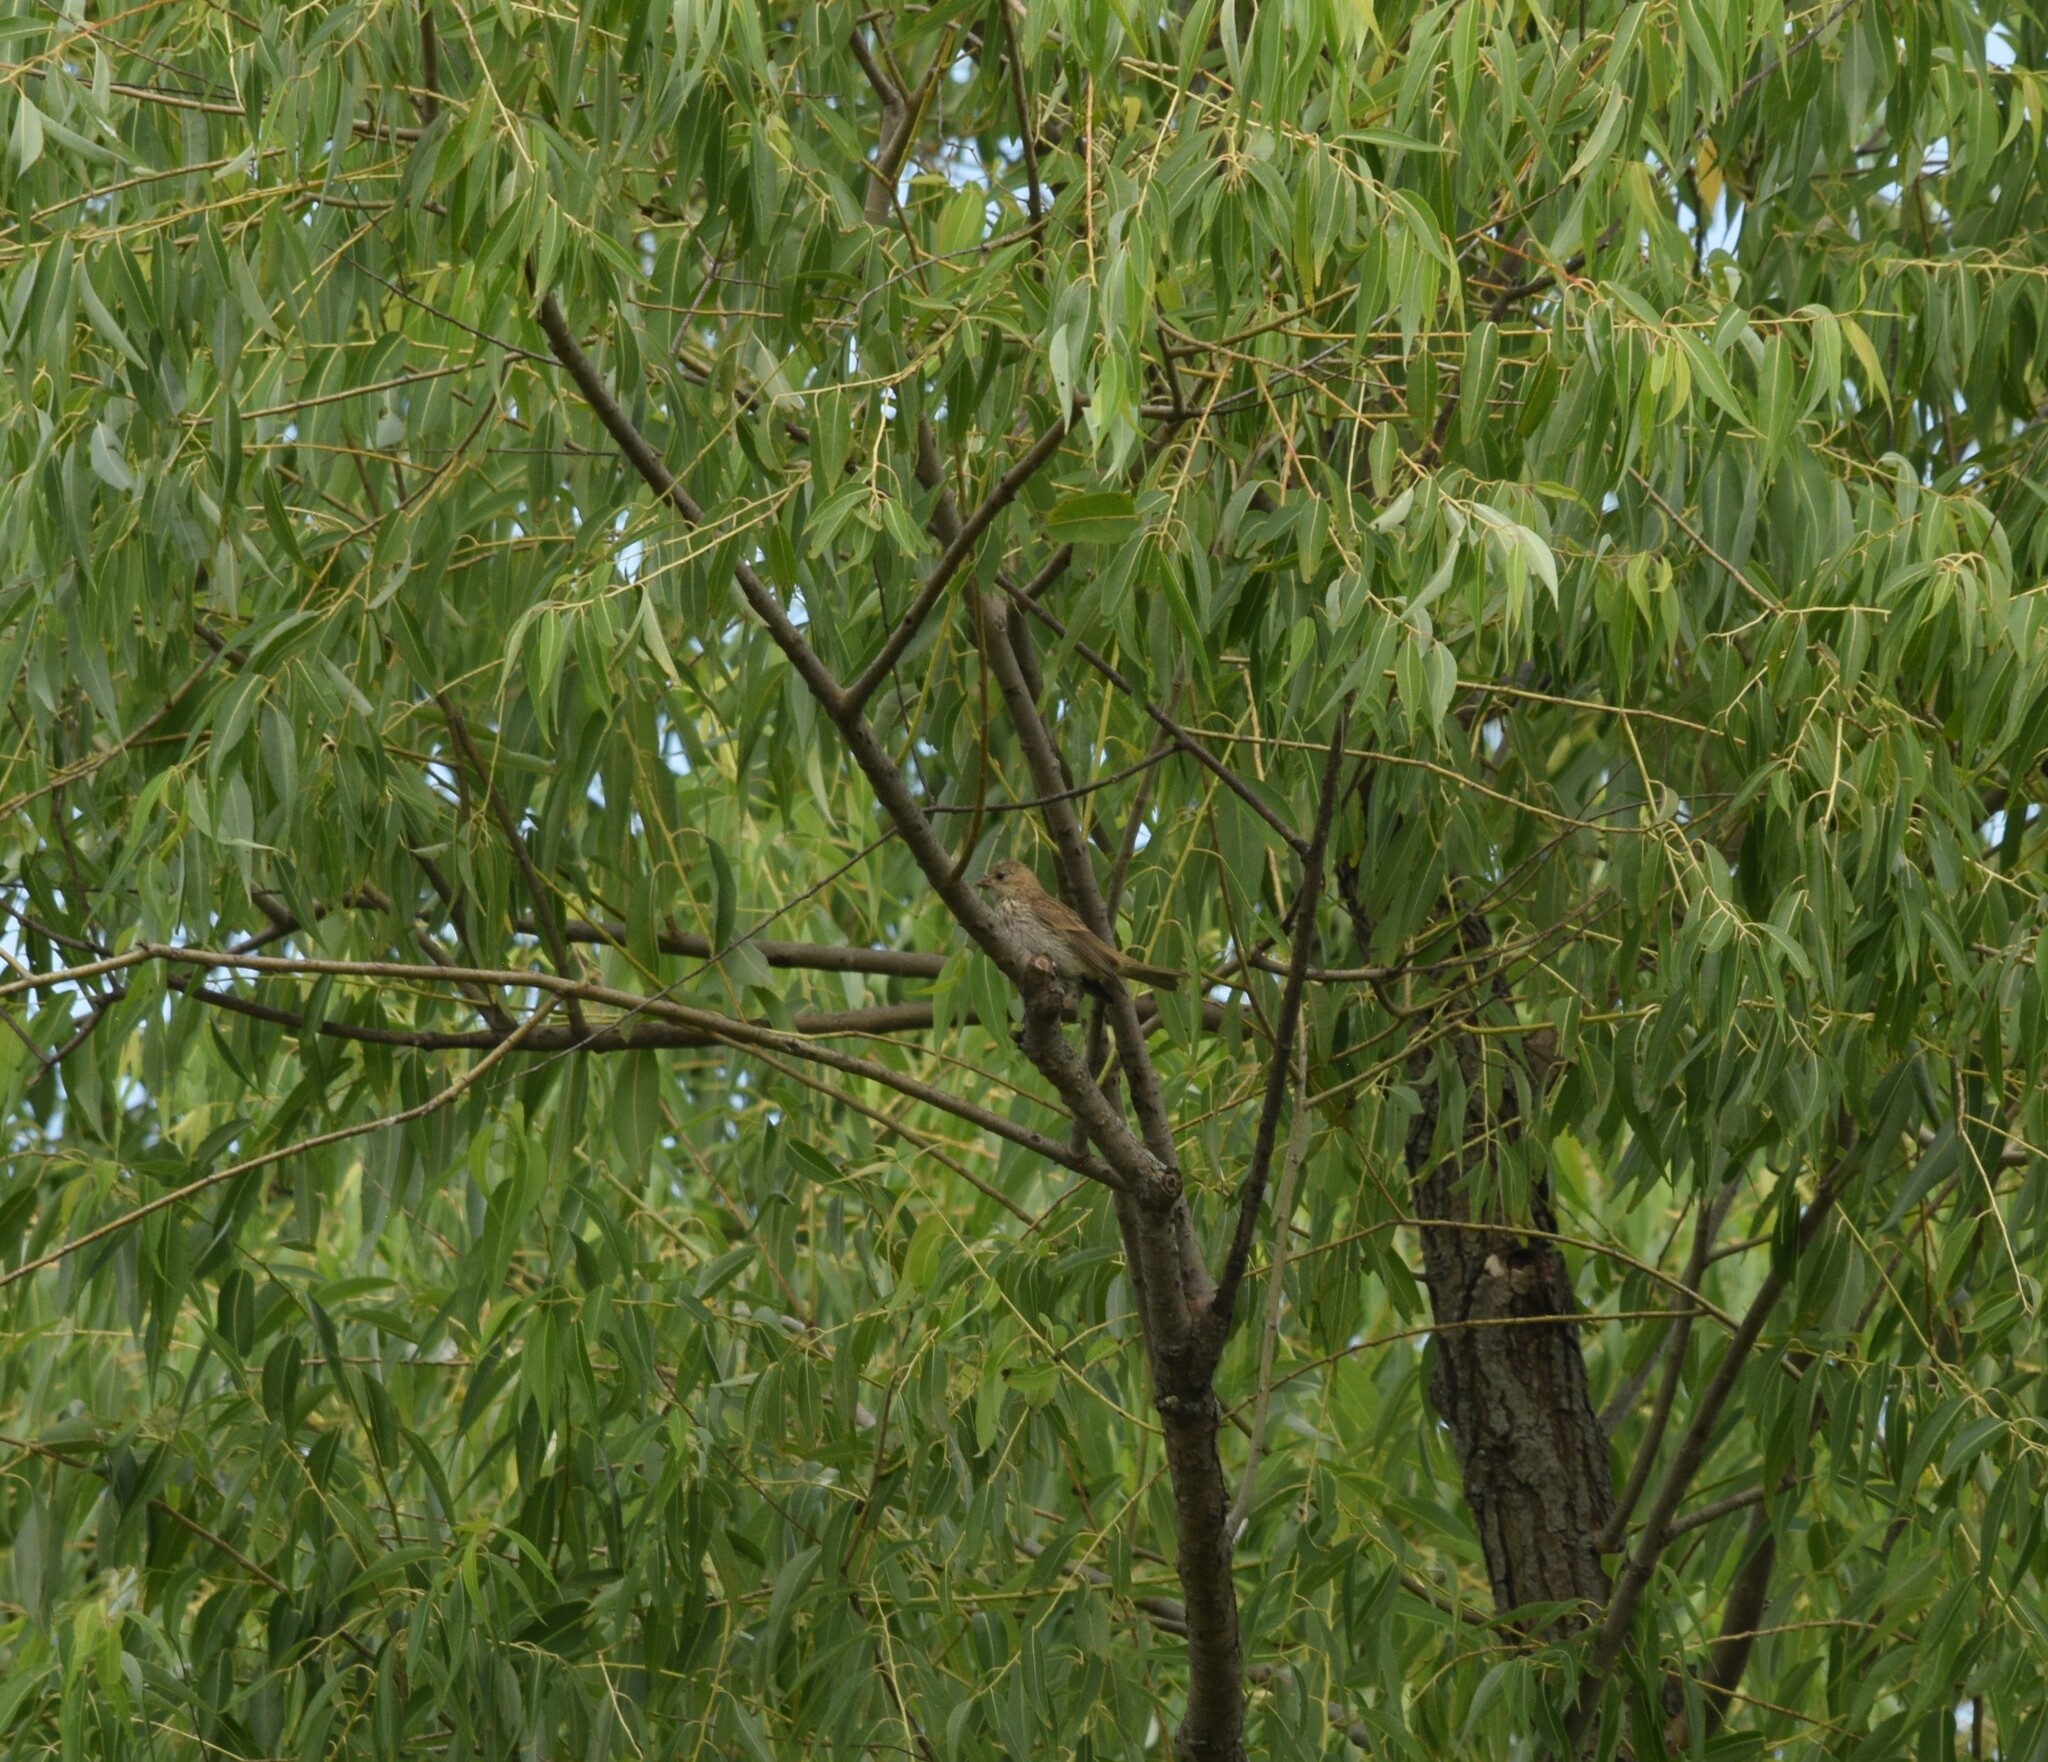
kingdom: Animalia
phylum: Chordata
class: Aves
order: Passeriformes
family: Fringillidae
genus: Haemorhous
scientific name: Haemorhous mexicanus
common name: House finch
